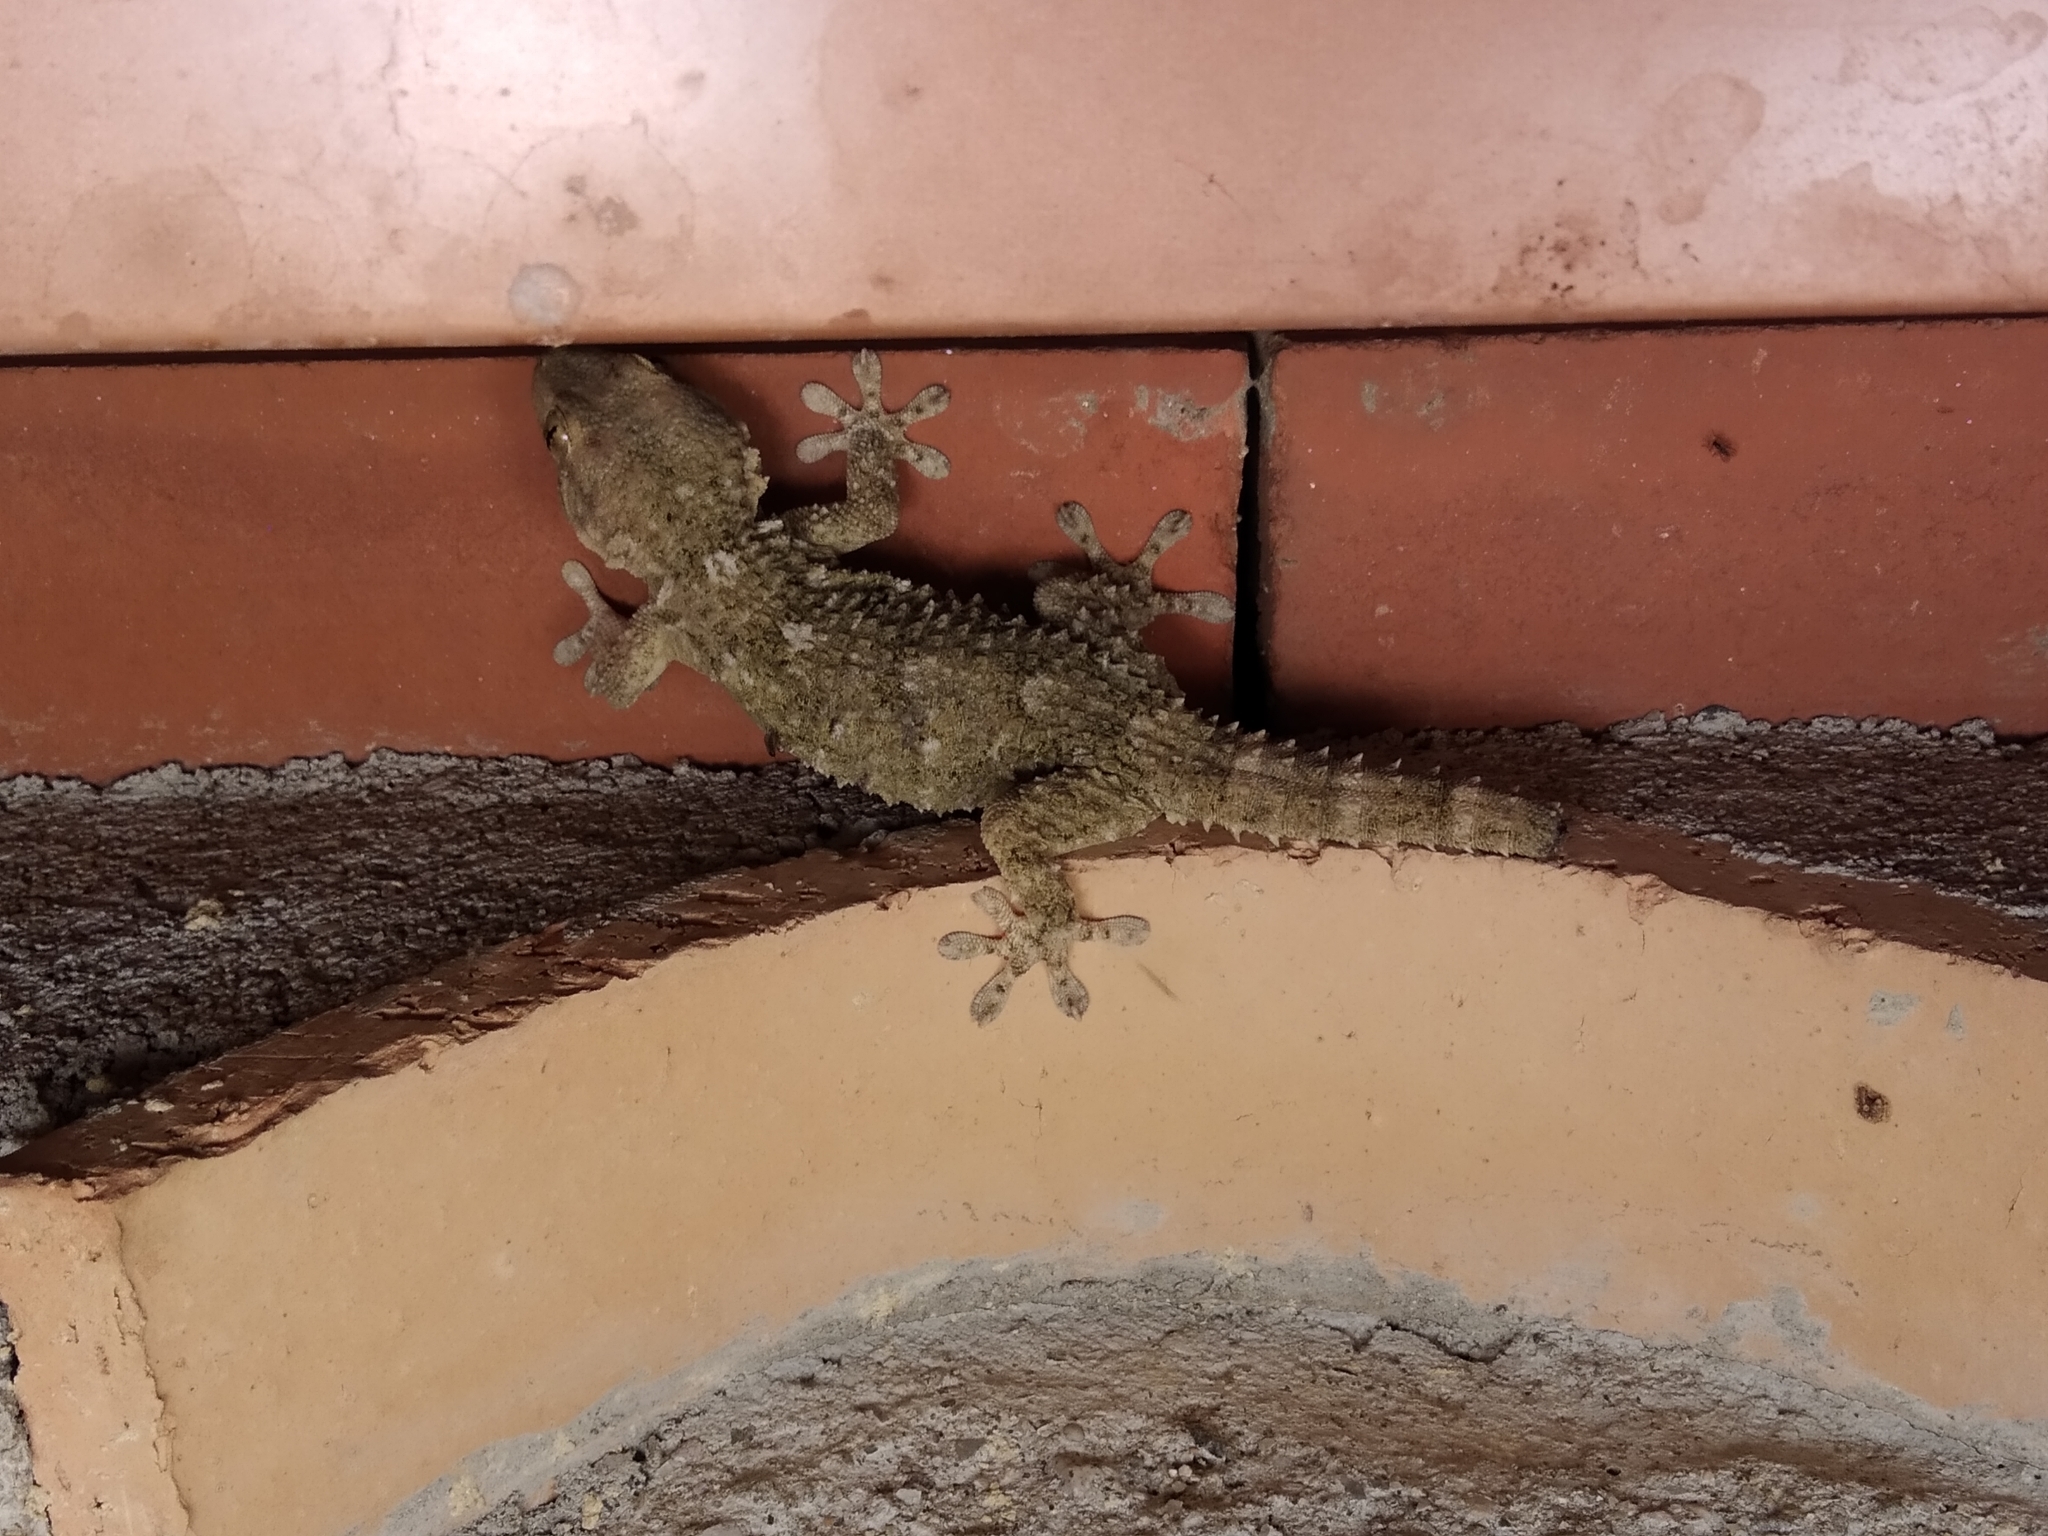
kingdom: Animalia
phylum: Chordata
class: Squamata
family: Phyllodactylidae
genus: Tarentola
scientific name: Tarentola mauritanica
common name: Moorish gecko
